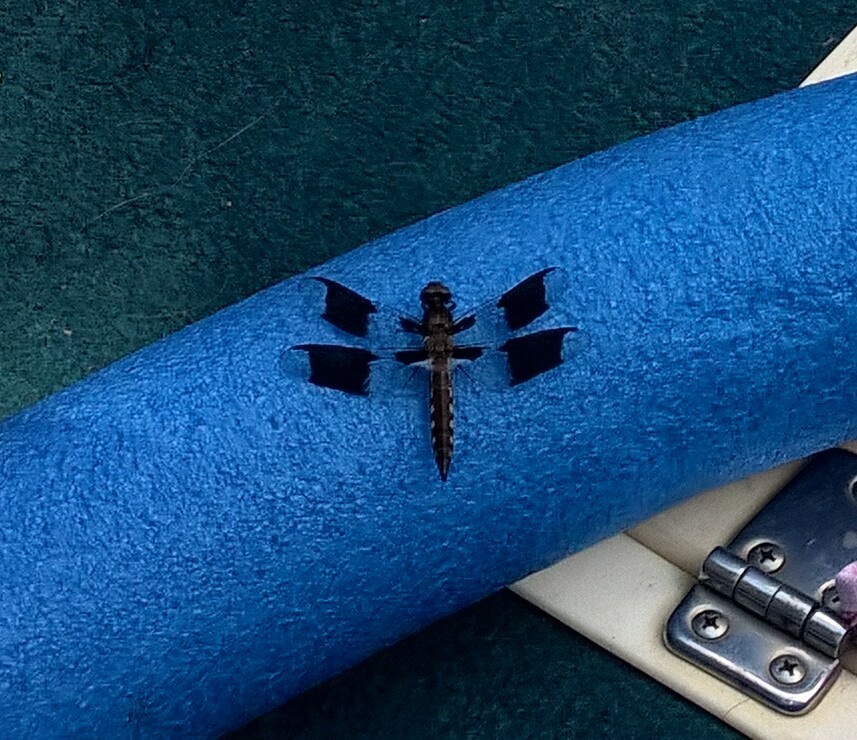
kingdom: Animalia
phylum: Arthropoda
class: Insecta
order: Odonata
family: Libellulidae
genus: Plathemis
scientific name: Plathemis lydia
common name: Common whitetail
